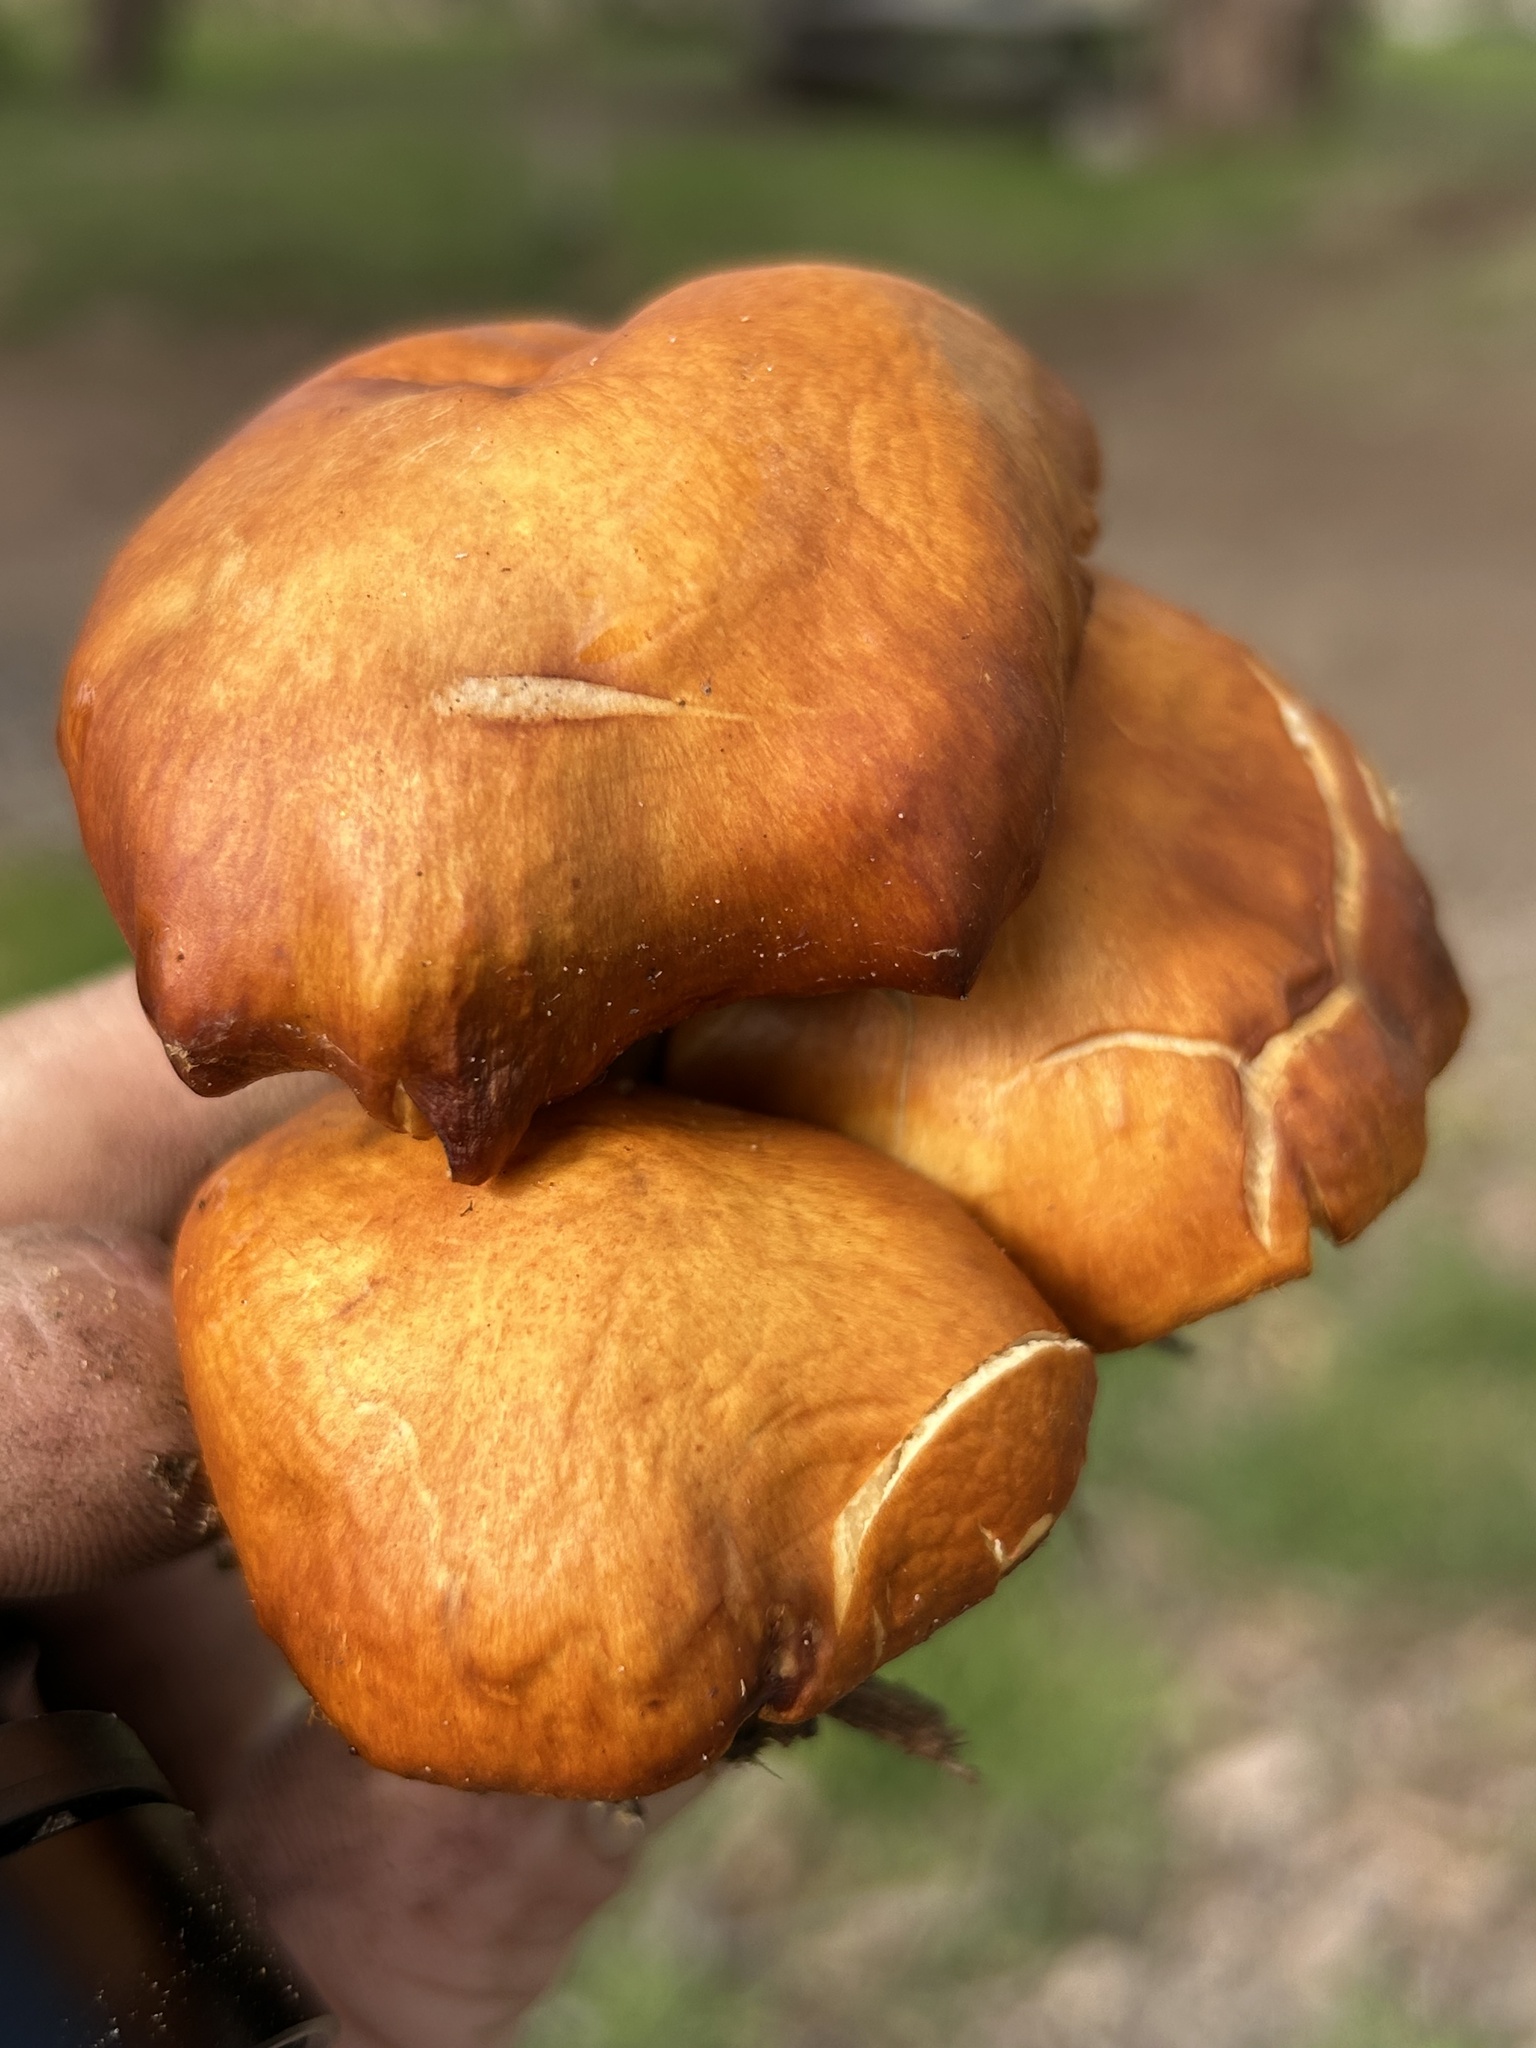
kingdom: Fungi
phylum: Basidiomycota
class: Agaricomycetes
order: Agaricales
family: Hymenogastraceae
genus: Gymnopilus
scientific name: Gymnopilus aurantiophyllus
